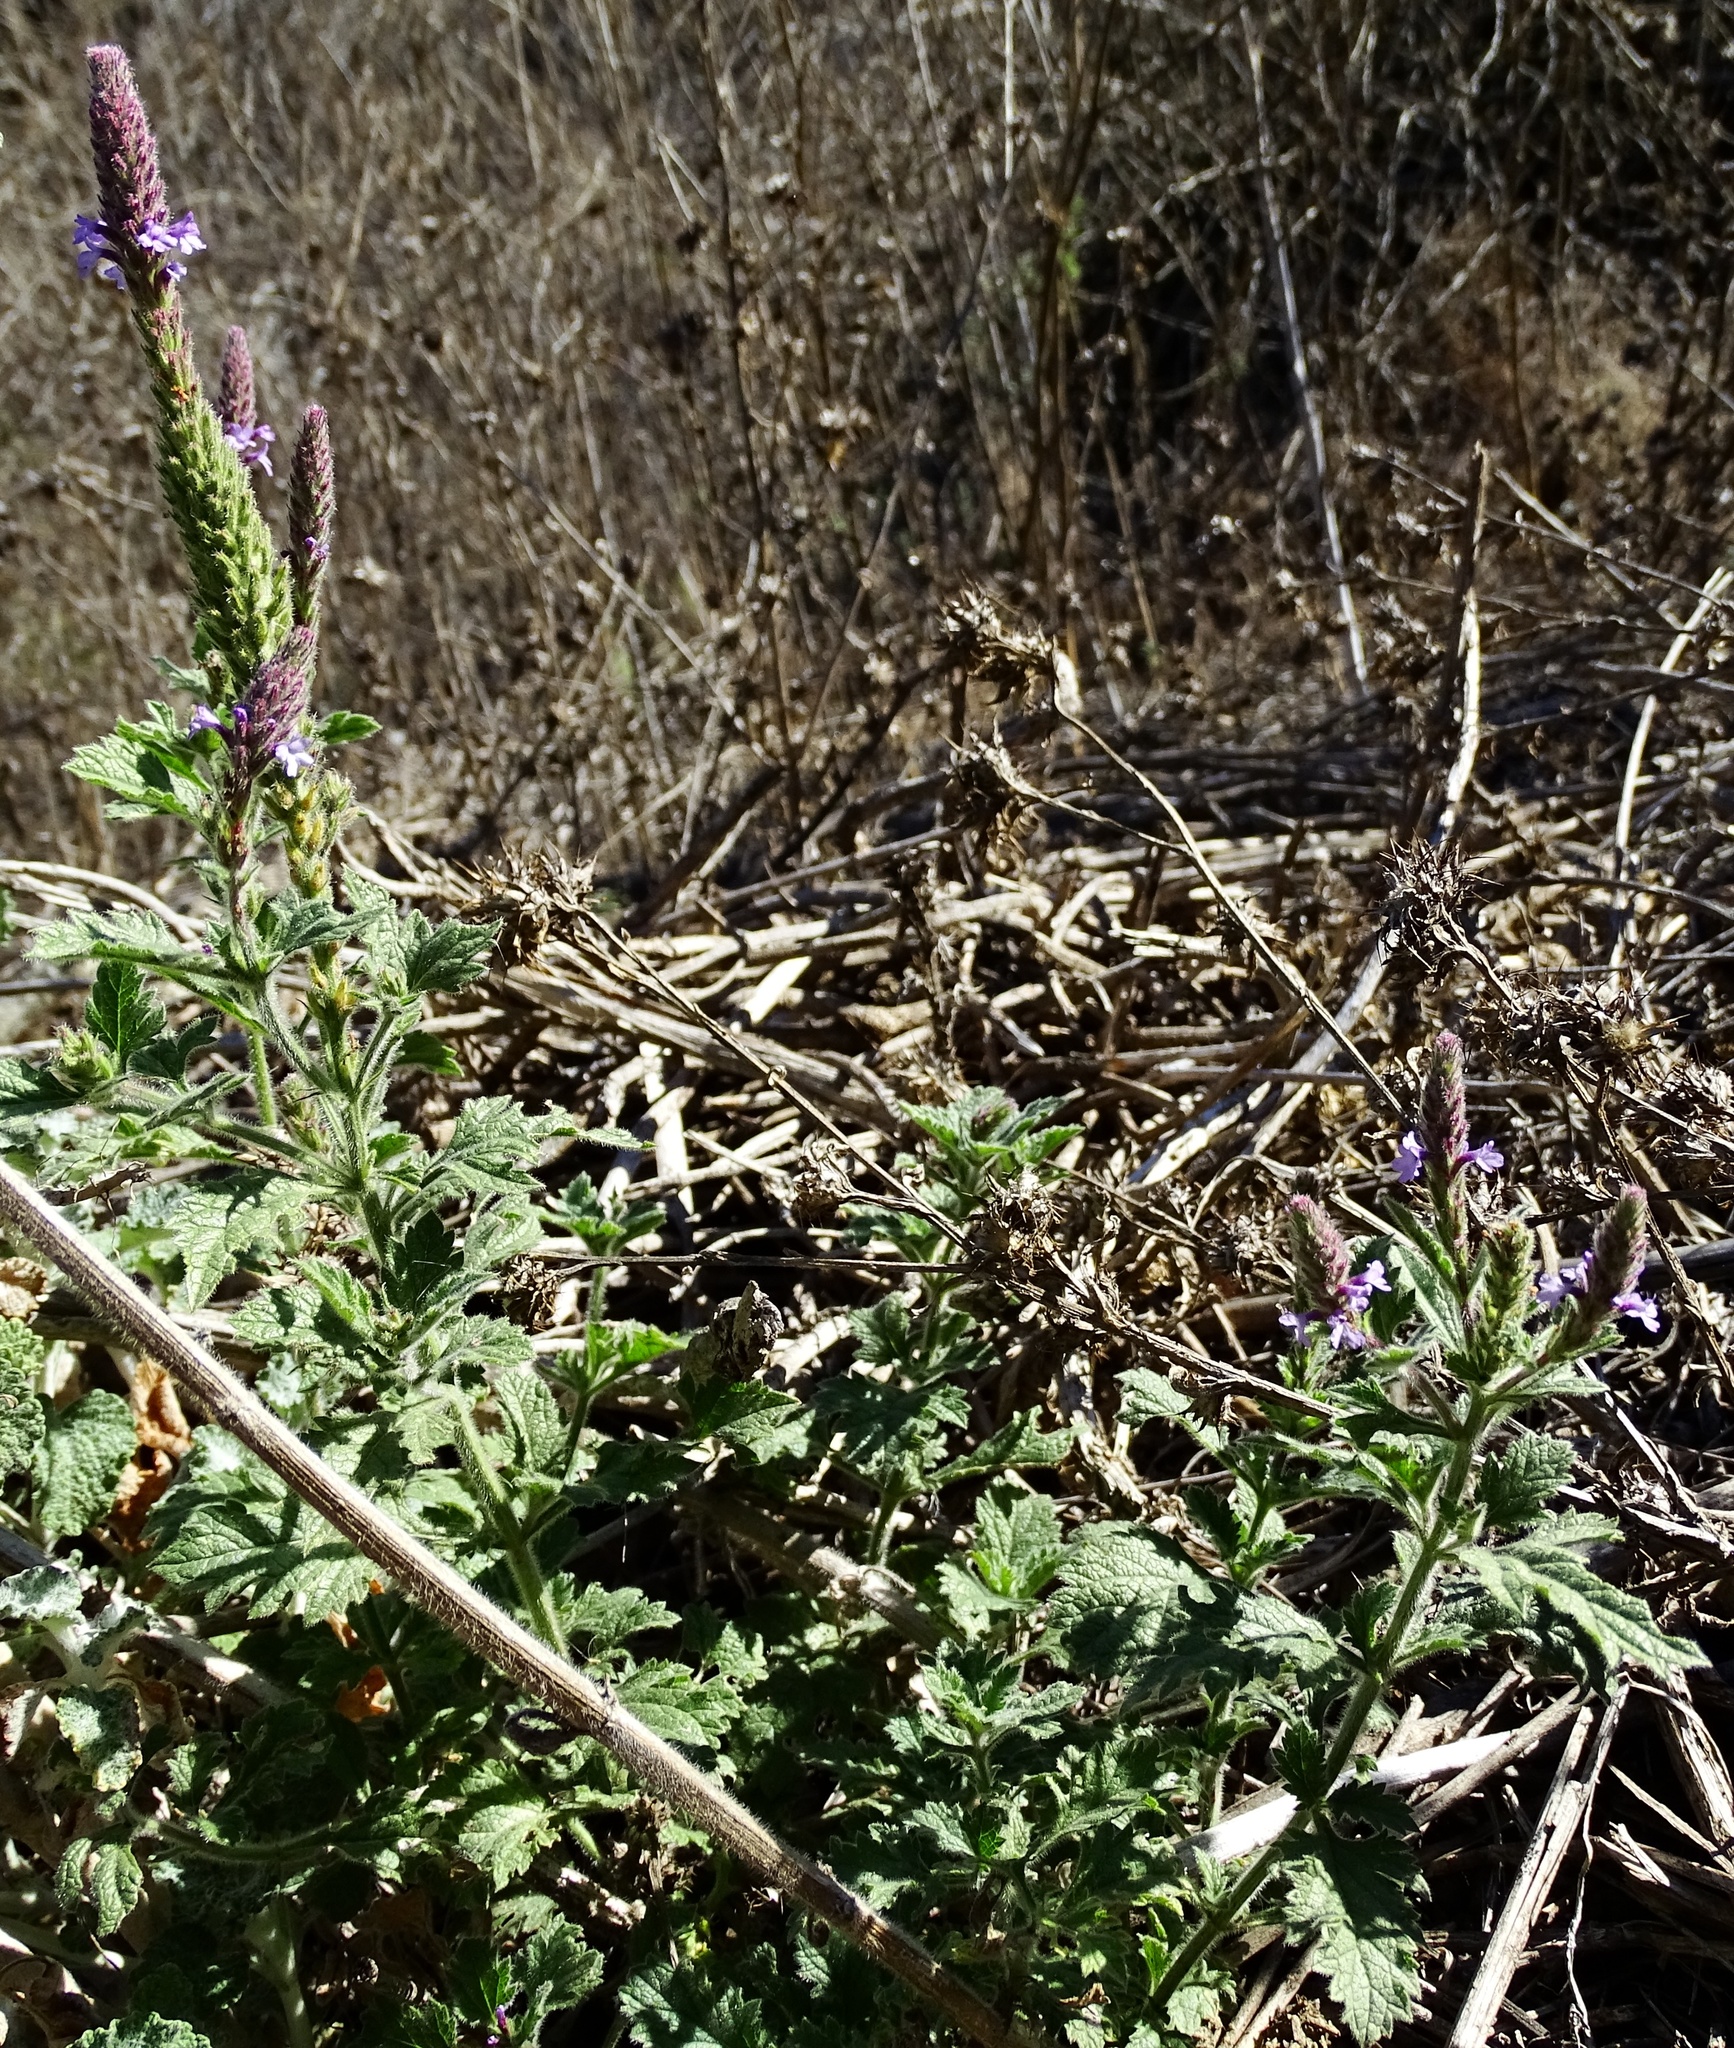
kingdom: Plantae
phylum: Tracheophyta
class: Magnoliopsida
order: Lamiales
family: Verbenaceae
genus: Verbena
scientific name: Verbena lasiostachys
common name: Vervain
